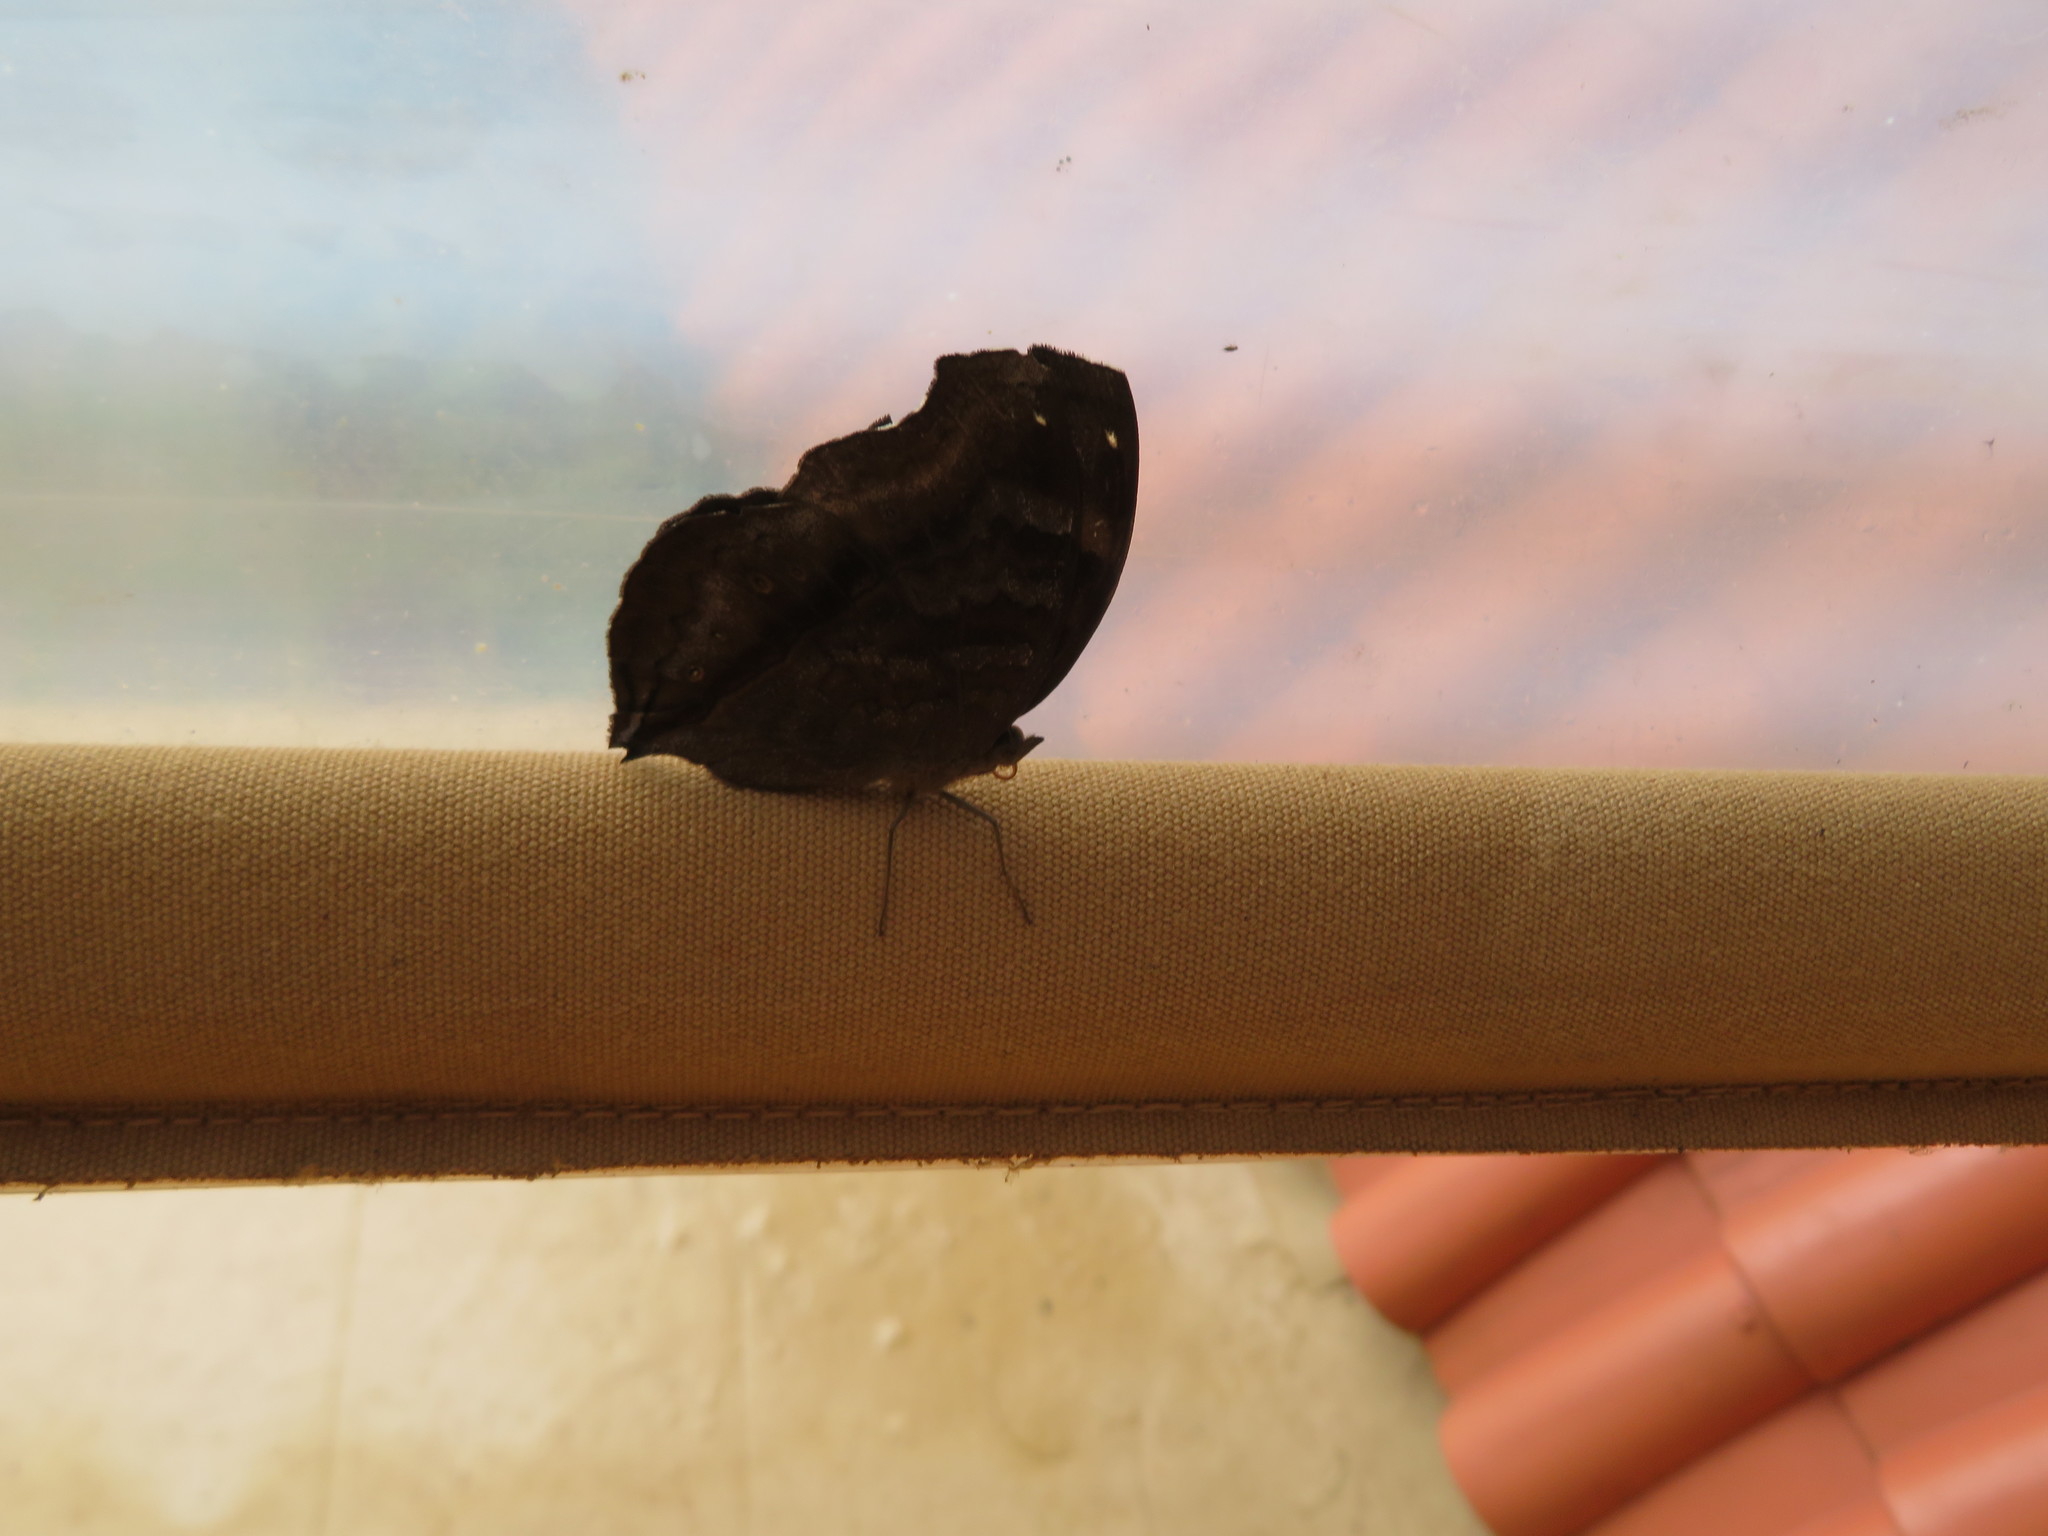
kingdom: Animalia
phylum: Arthropoda
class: Insecta
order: Lepidoptera
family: Nymphalidae
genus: Junonia
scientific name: Junonia iphita
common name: Chocolate pansy
